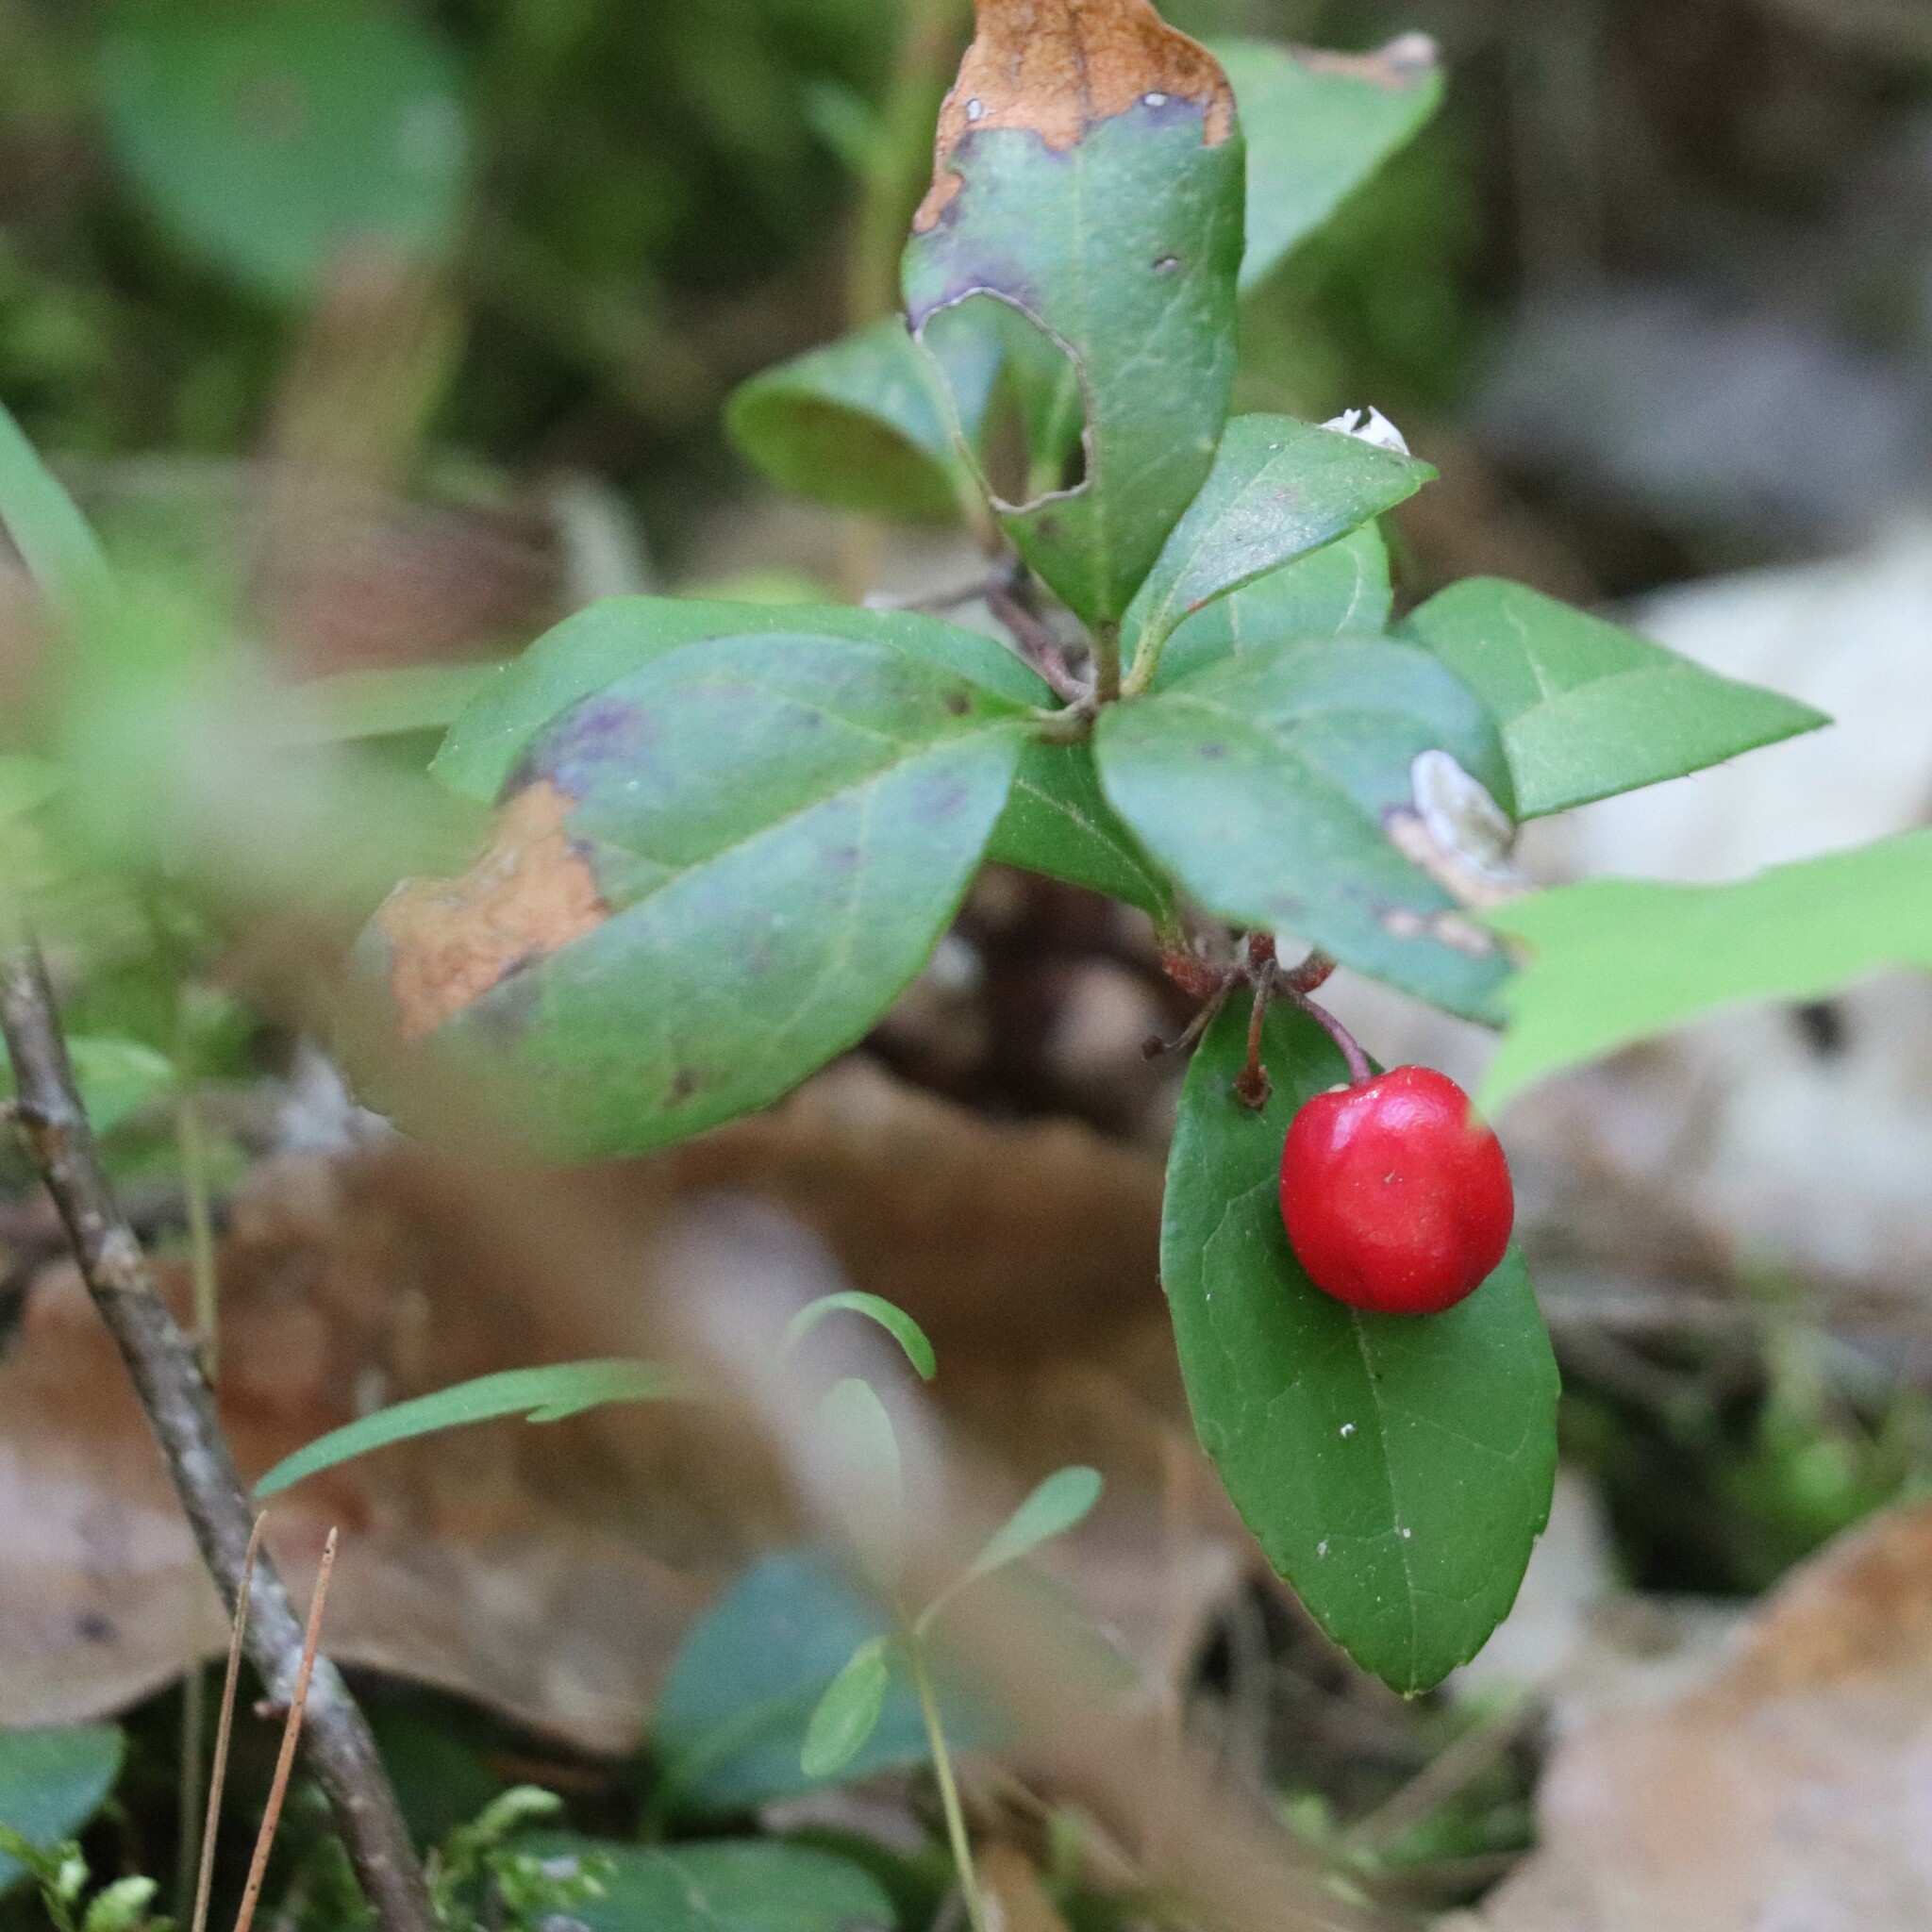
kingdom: Plantae
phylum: Tracheophyta
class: Magnoliopsida
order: Ericales
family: Ericaceae
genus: Gaultheria
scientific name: Gaultheria procumbens
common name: Checkerberry
